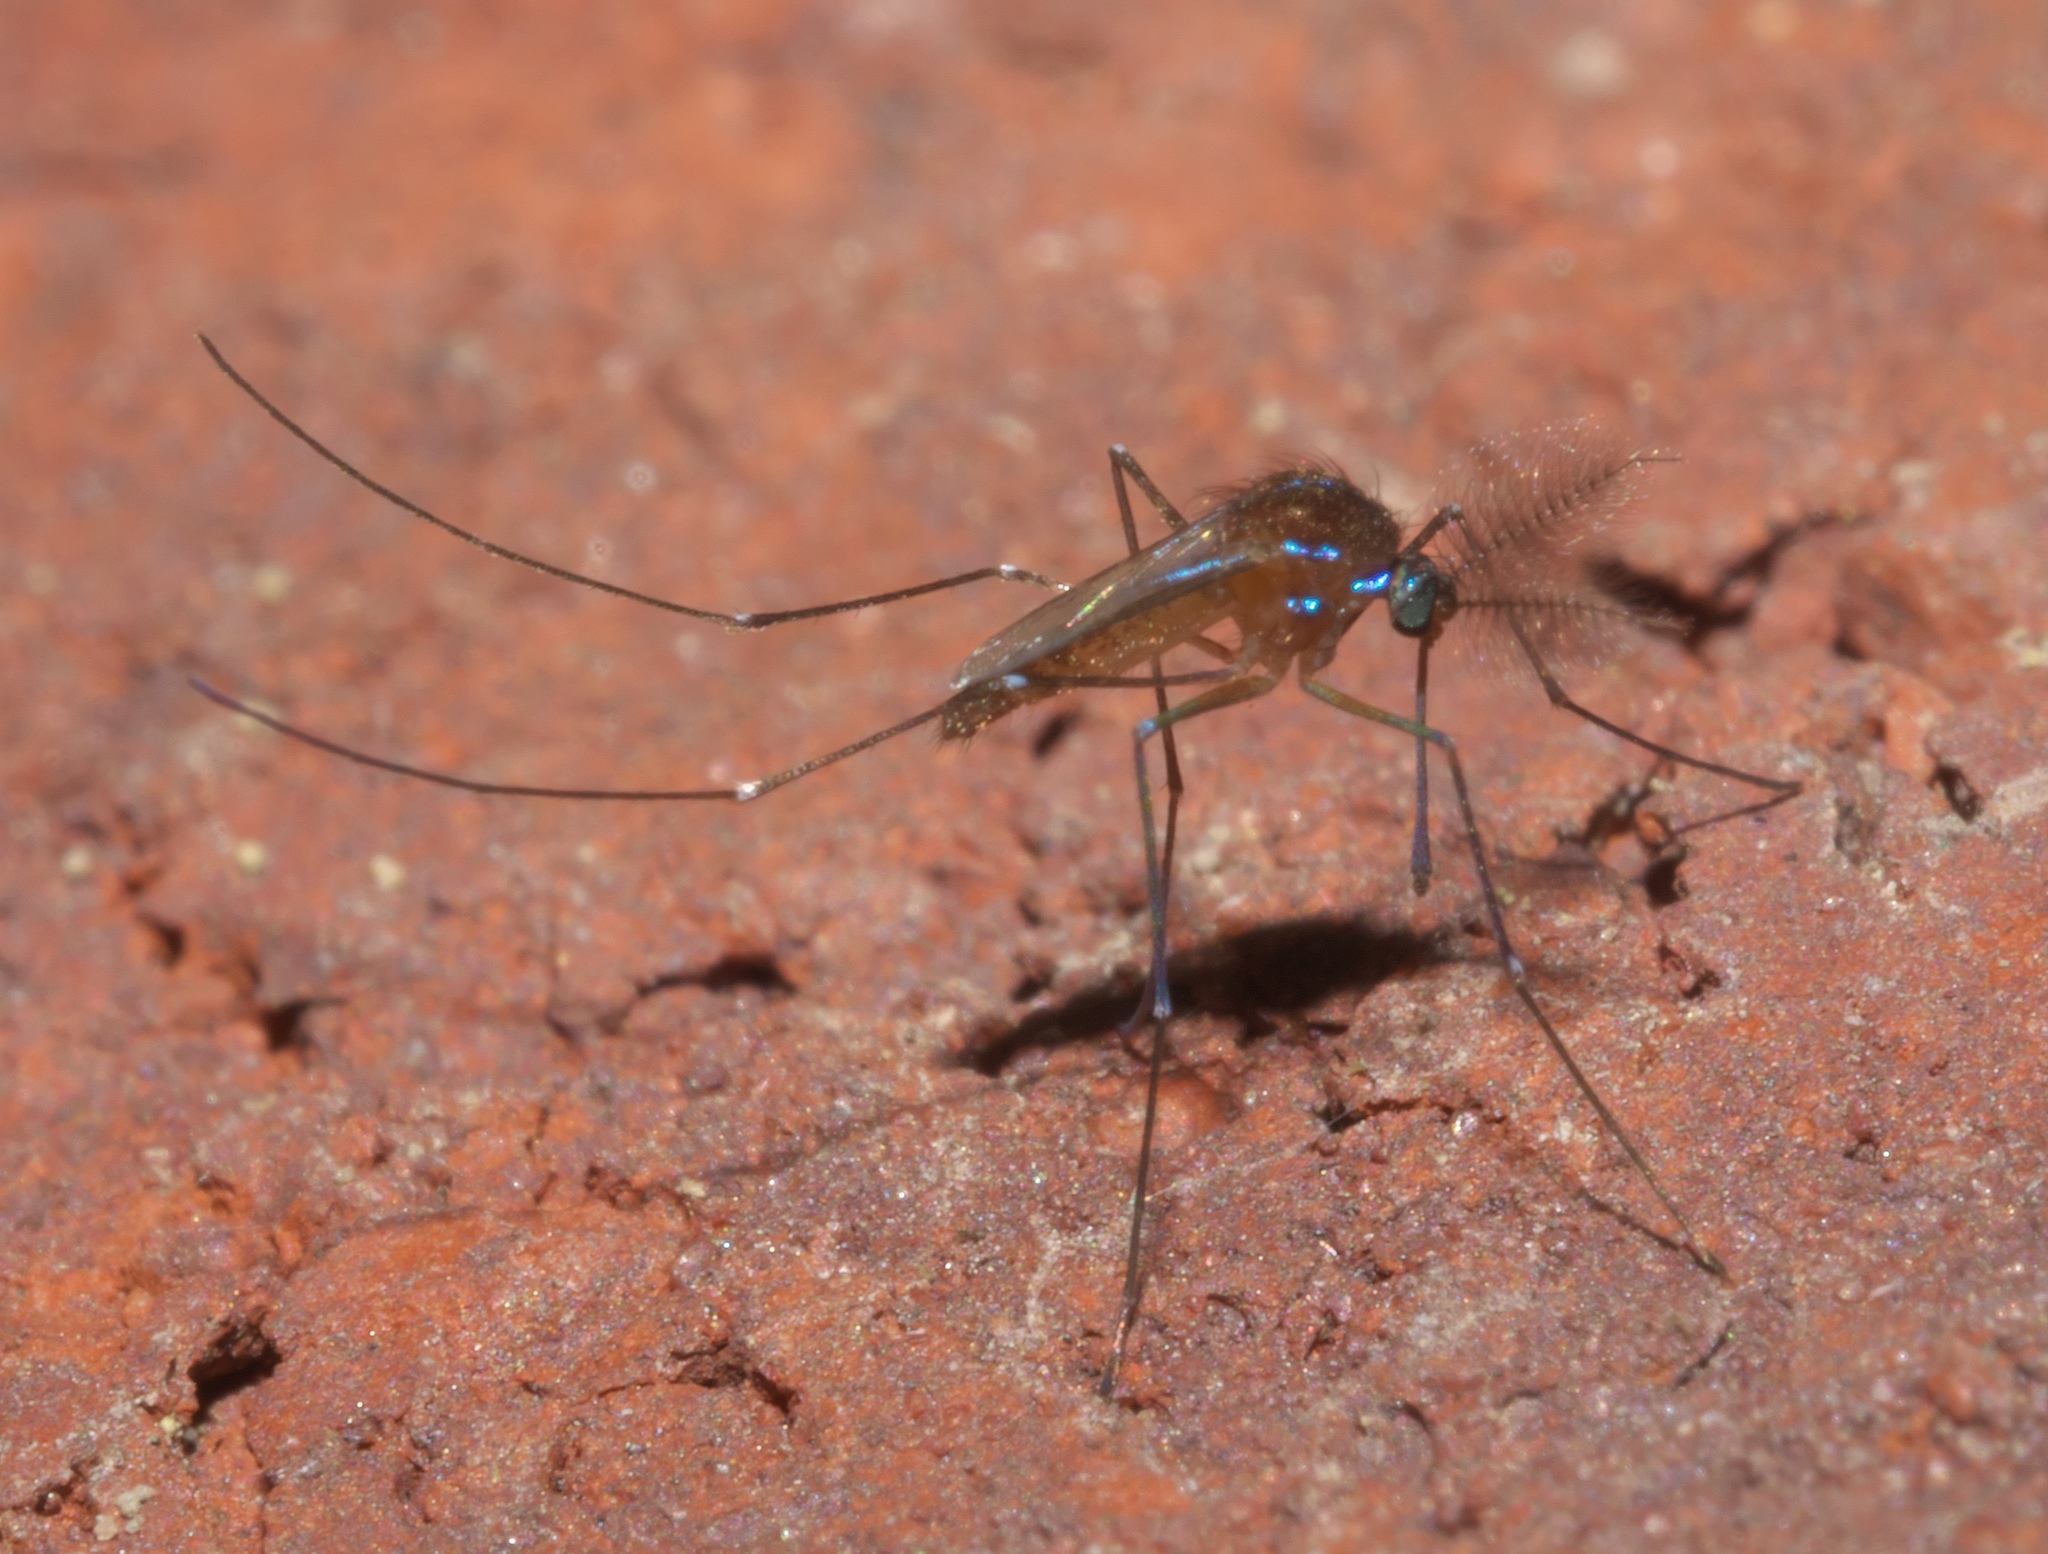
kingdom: Animalia
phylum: Arthropoda
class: Insecta
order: Diptera
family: Culicidae
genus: Uranotaenia
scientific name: Uranotaenia sapphirina
